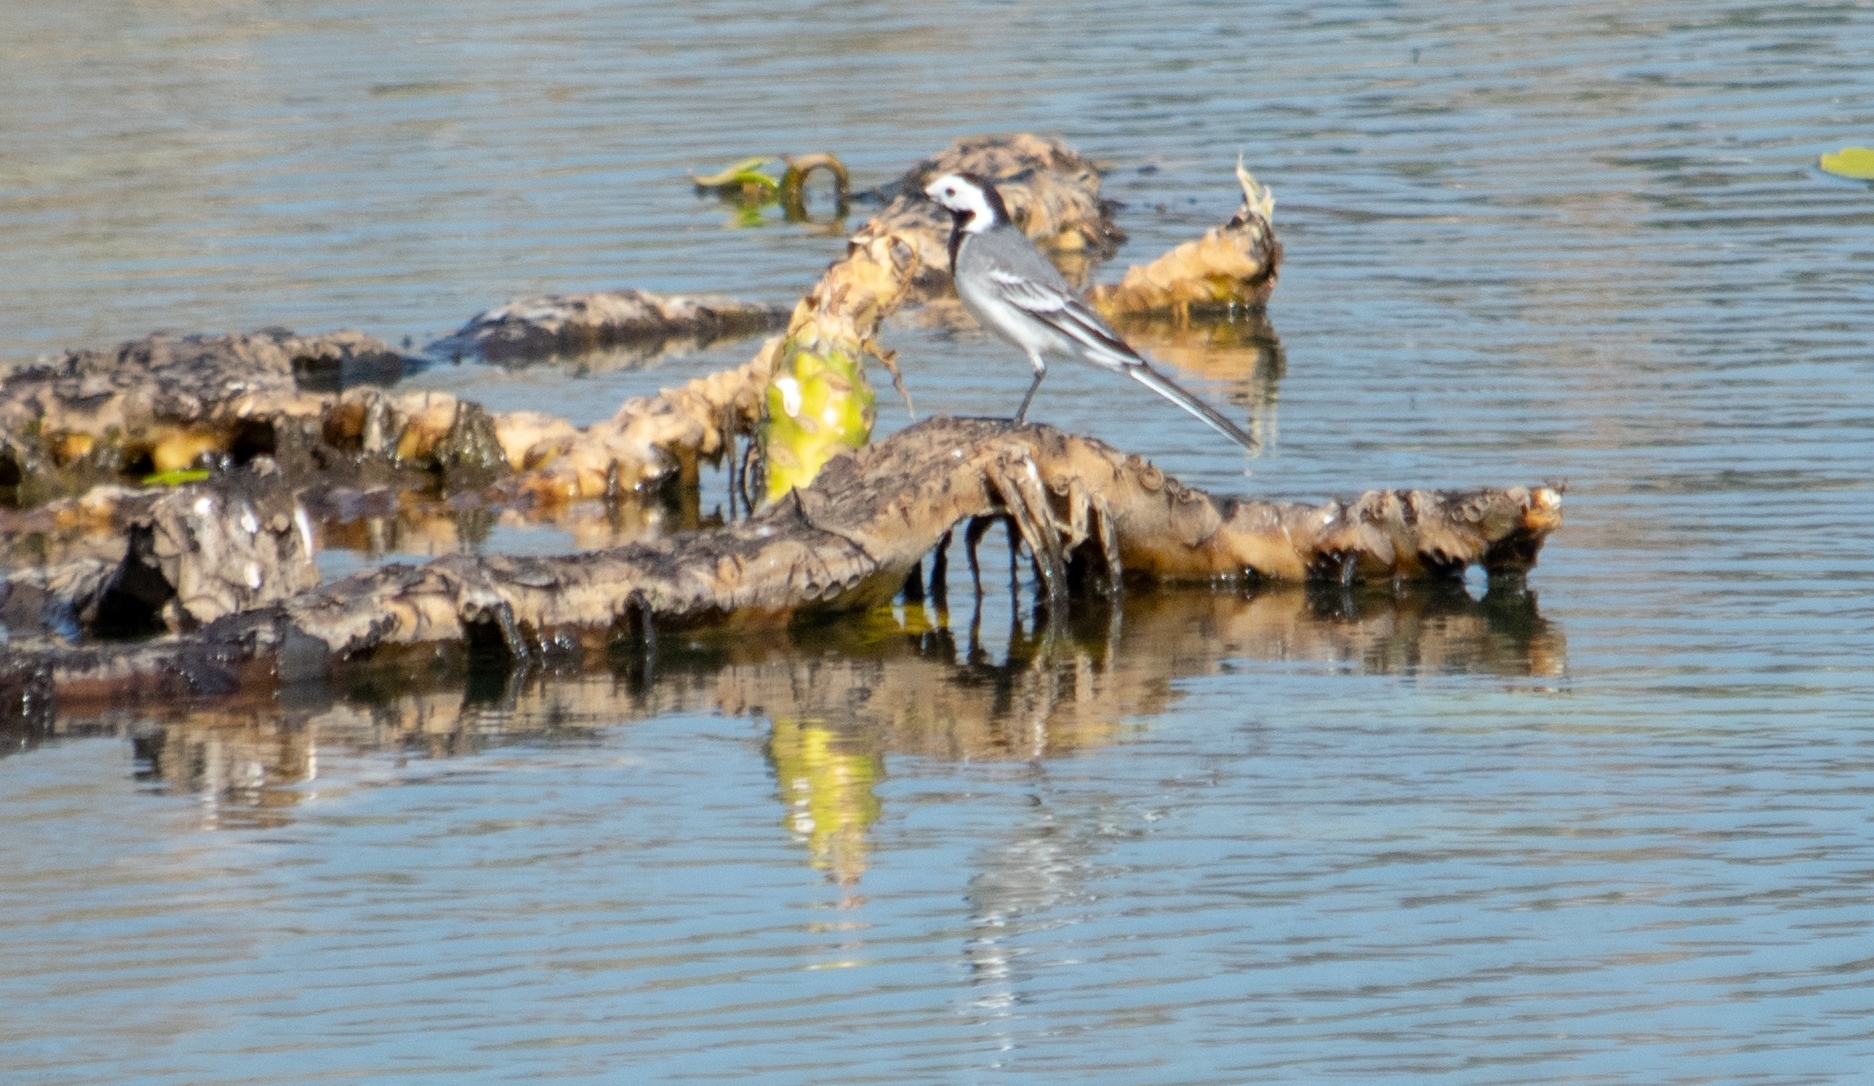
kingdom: Animalia
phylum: Chordata
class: Aves
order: Passeriformes
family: Motacillidae
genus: Motacilla
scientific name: Motacilla alba
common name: White wagtail
